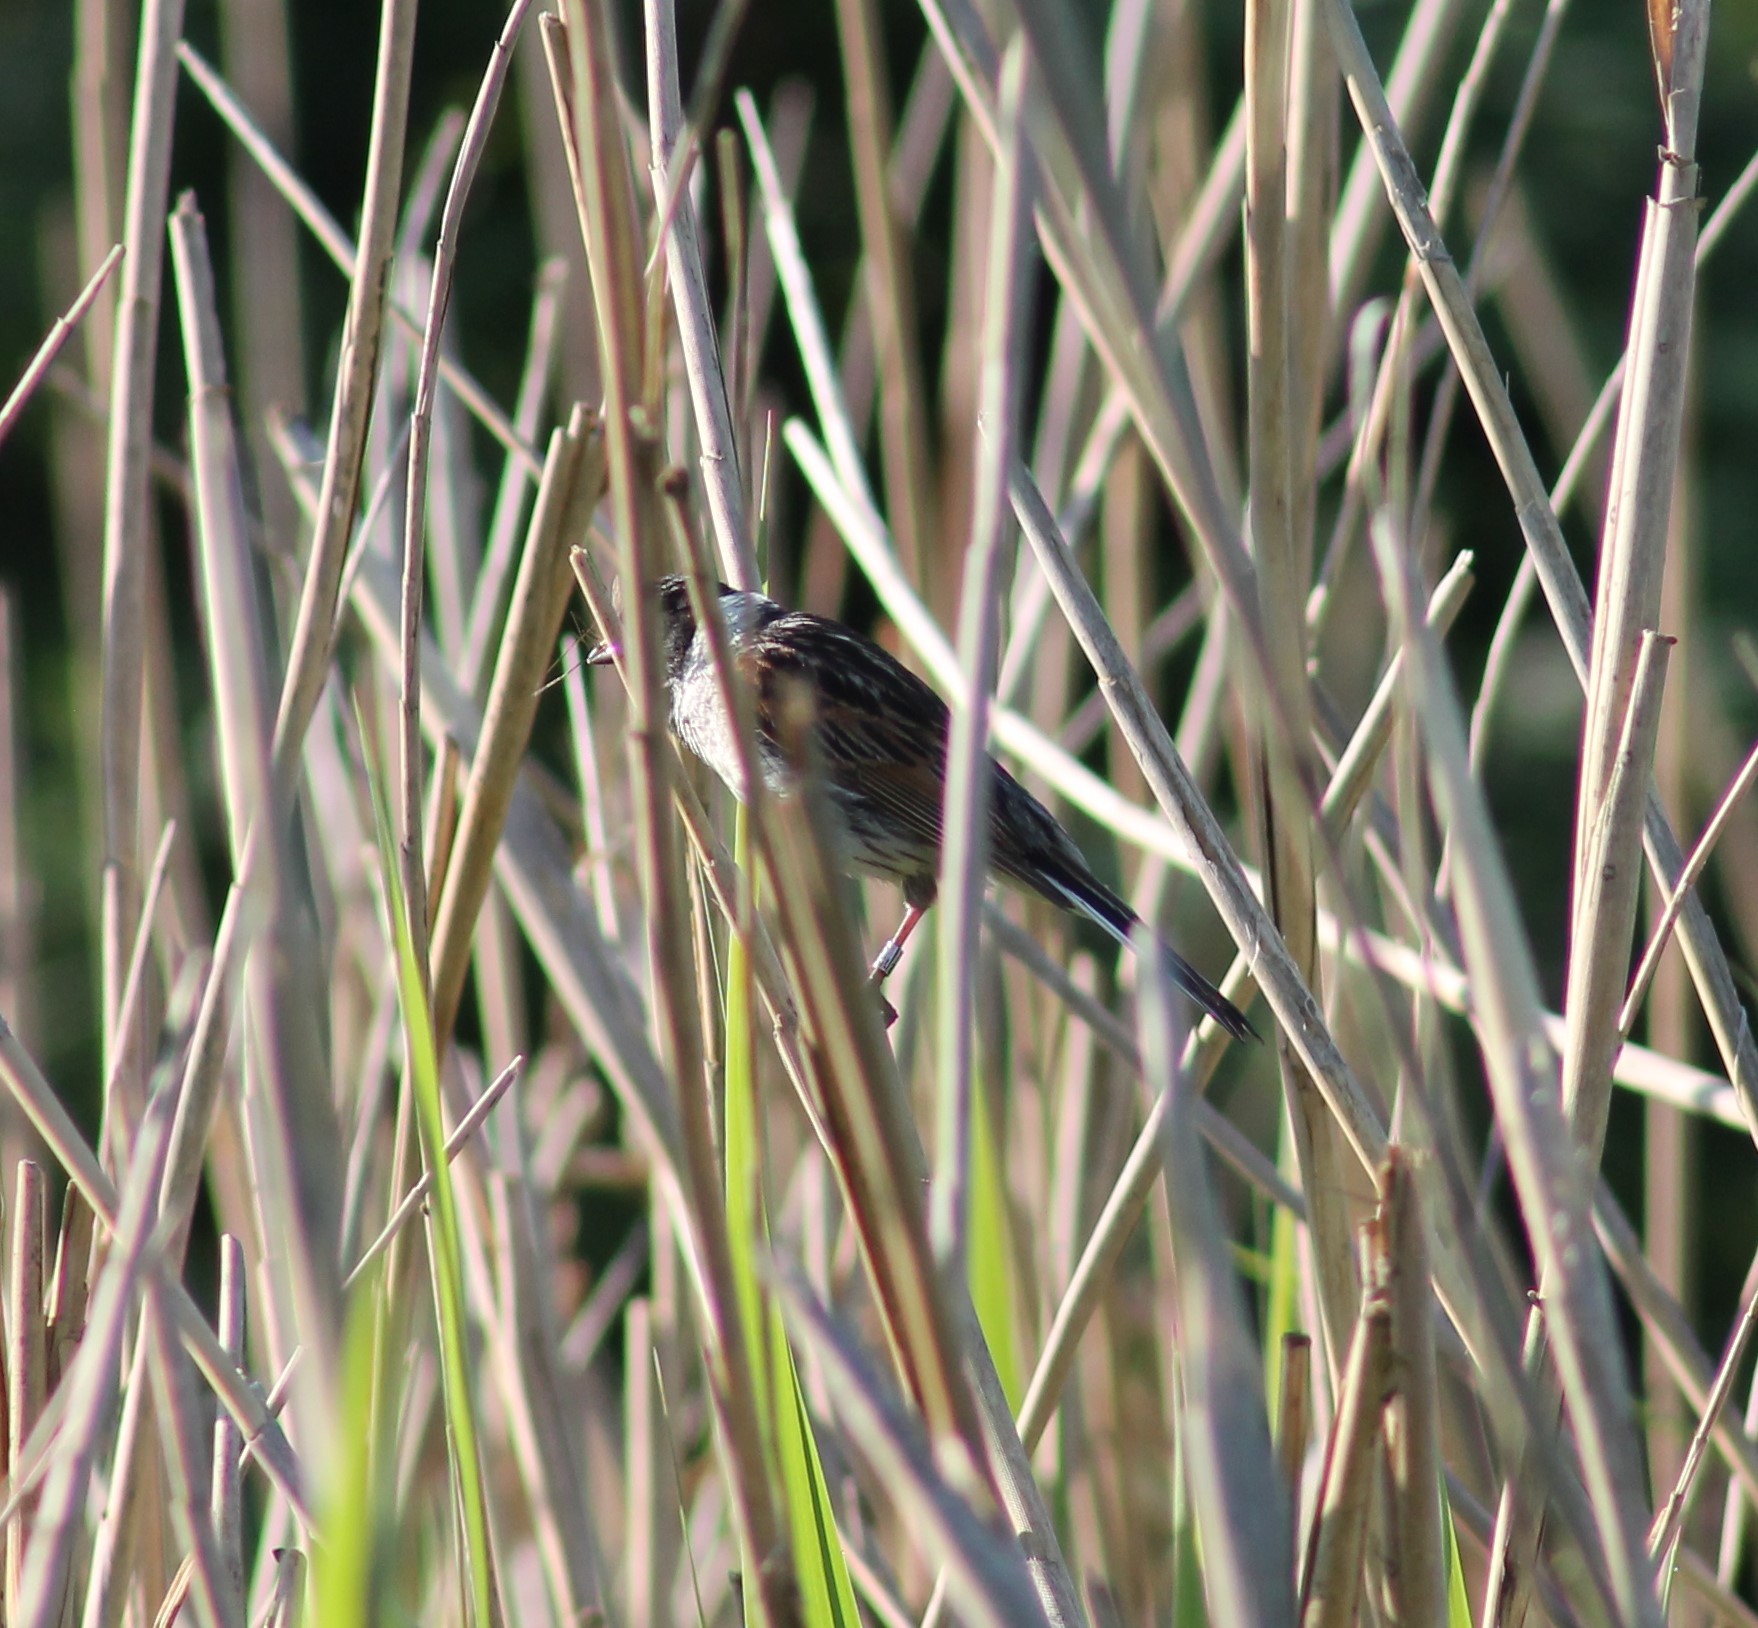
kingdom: Animalia
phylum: Chordata
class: Aves
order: Passeriformes
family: Emberizidae
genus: Emberiza
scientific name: Emberiza schoeniclus
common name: Reed bunting
